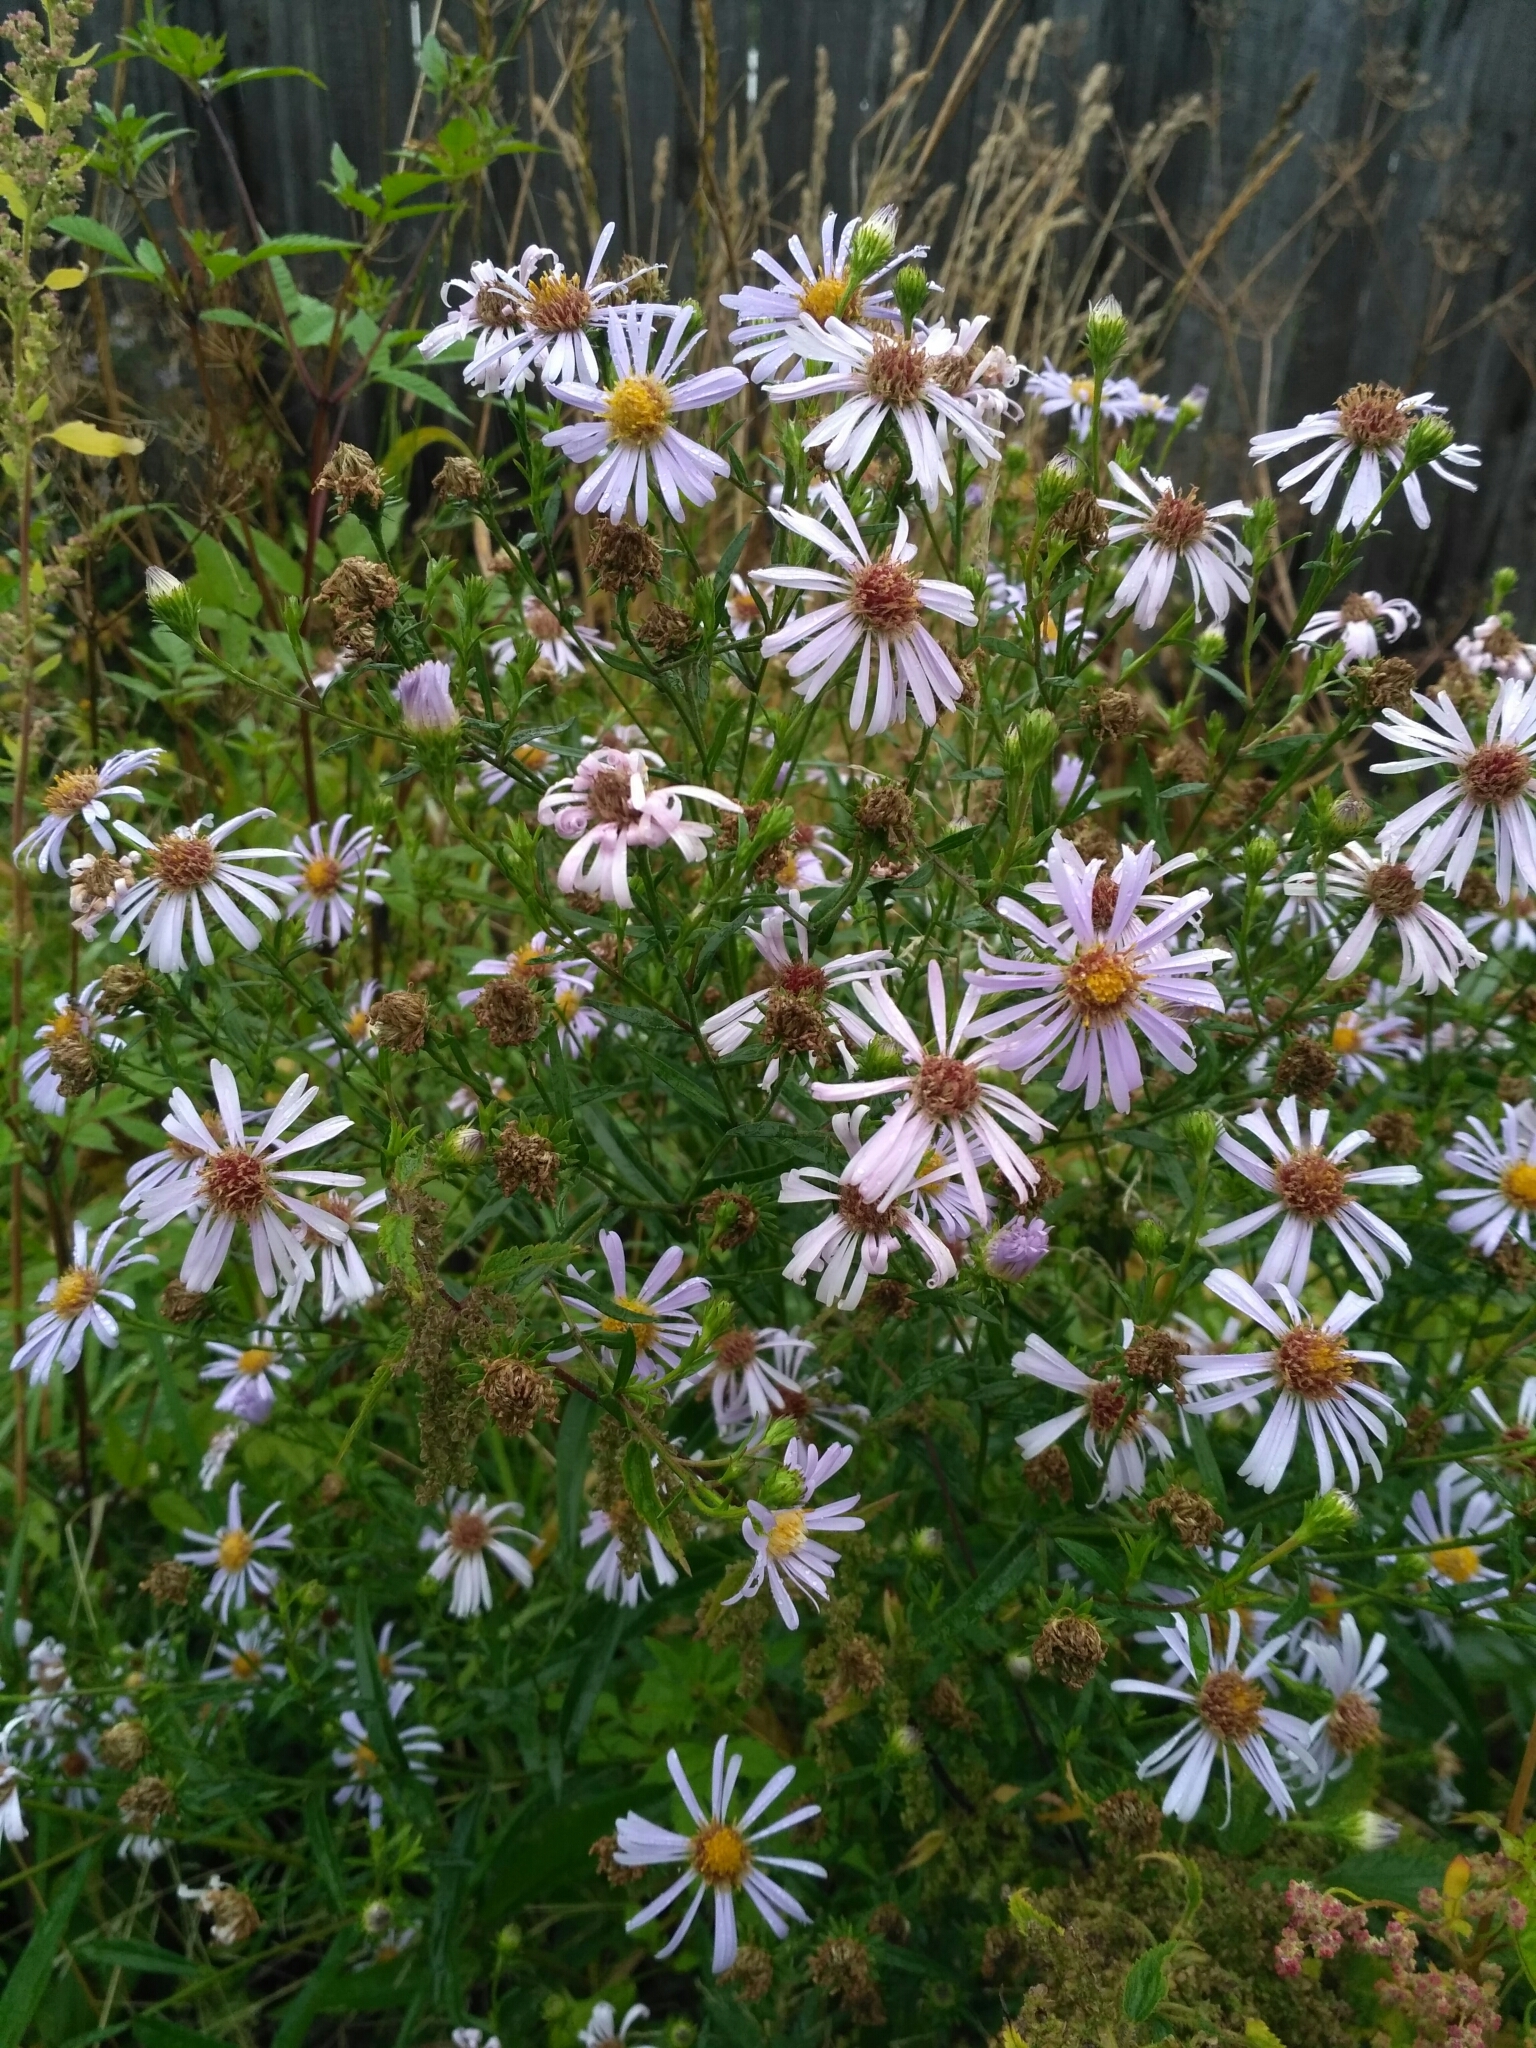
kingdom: Plantae
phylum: Tracheophyta
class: Magnoliopsida
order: Asterales
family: Asteraceae
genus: Symphyotrichum
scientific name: Symphyotrichum salignum
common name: Common michaelmas daisy
